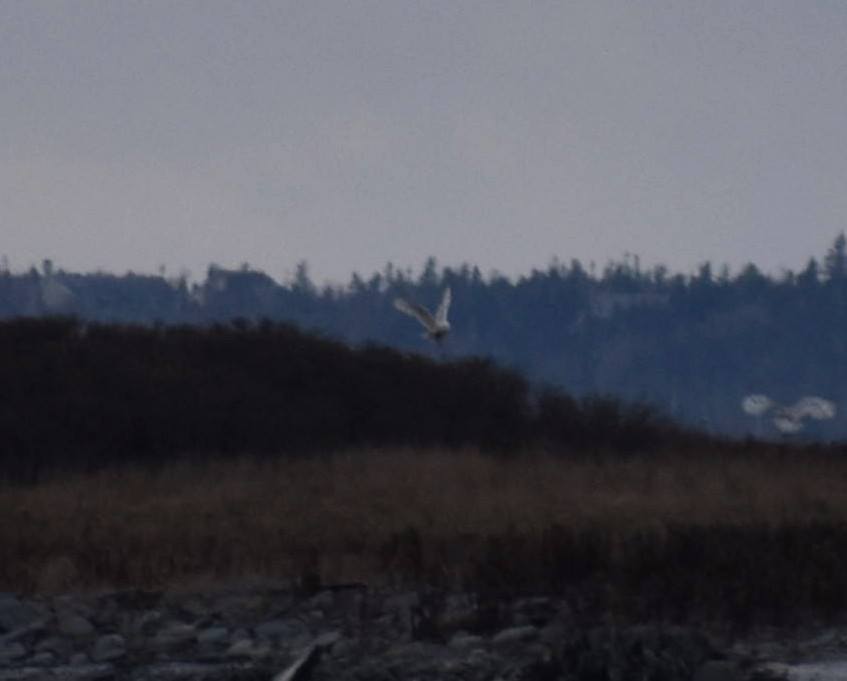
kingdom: Animalia
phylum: Chordata
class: Aves
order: Strigiformes
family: Strigidae
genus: Bubo
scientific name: Bubo scandiacus
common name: Snowy owl
